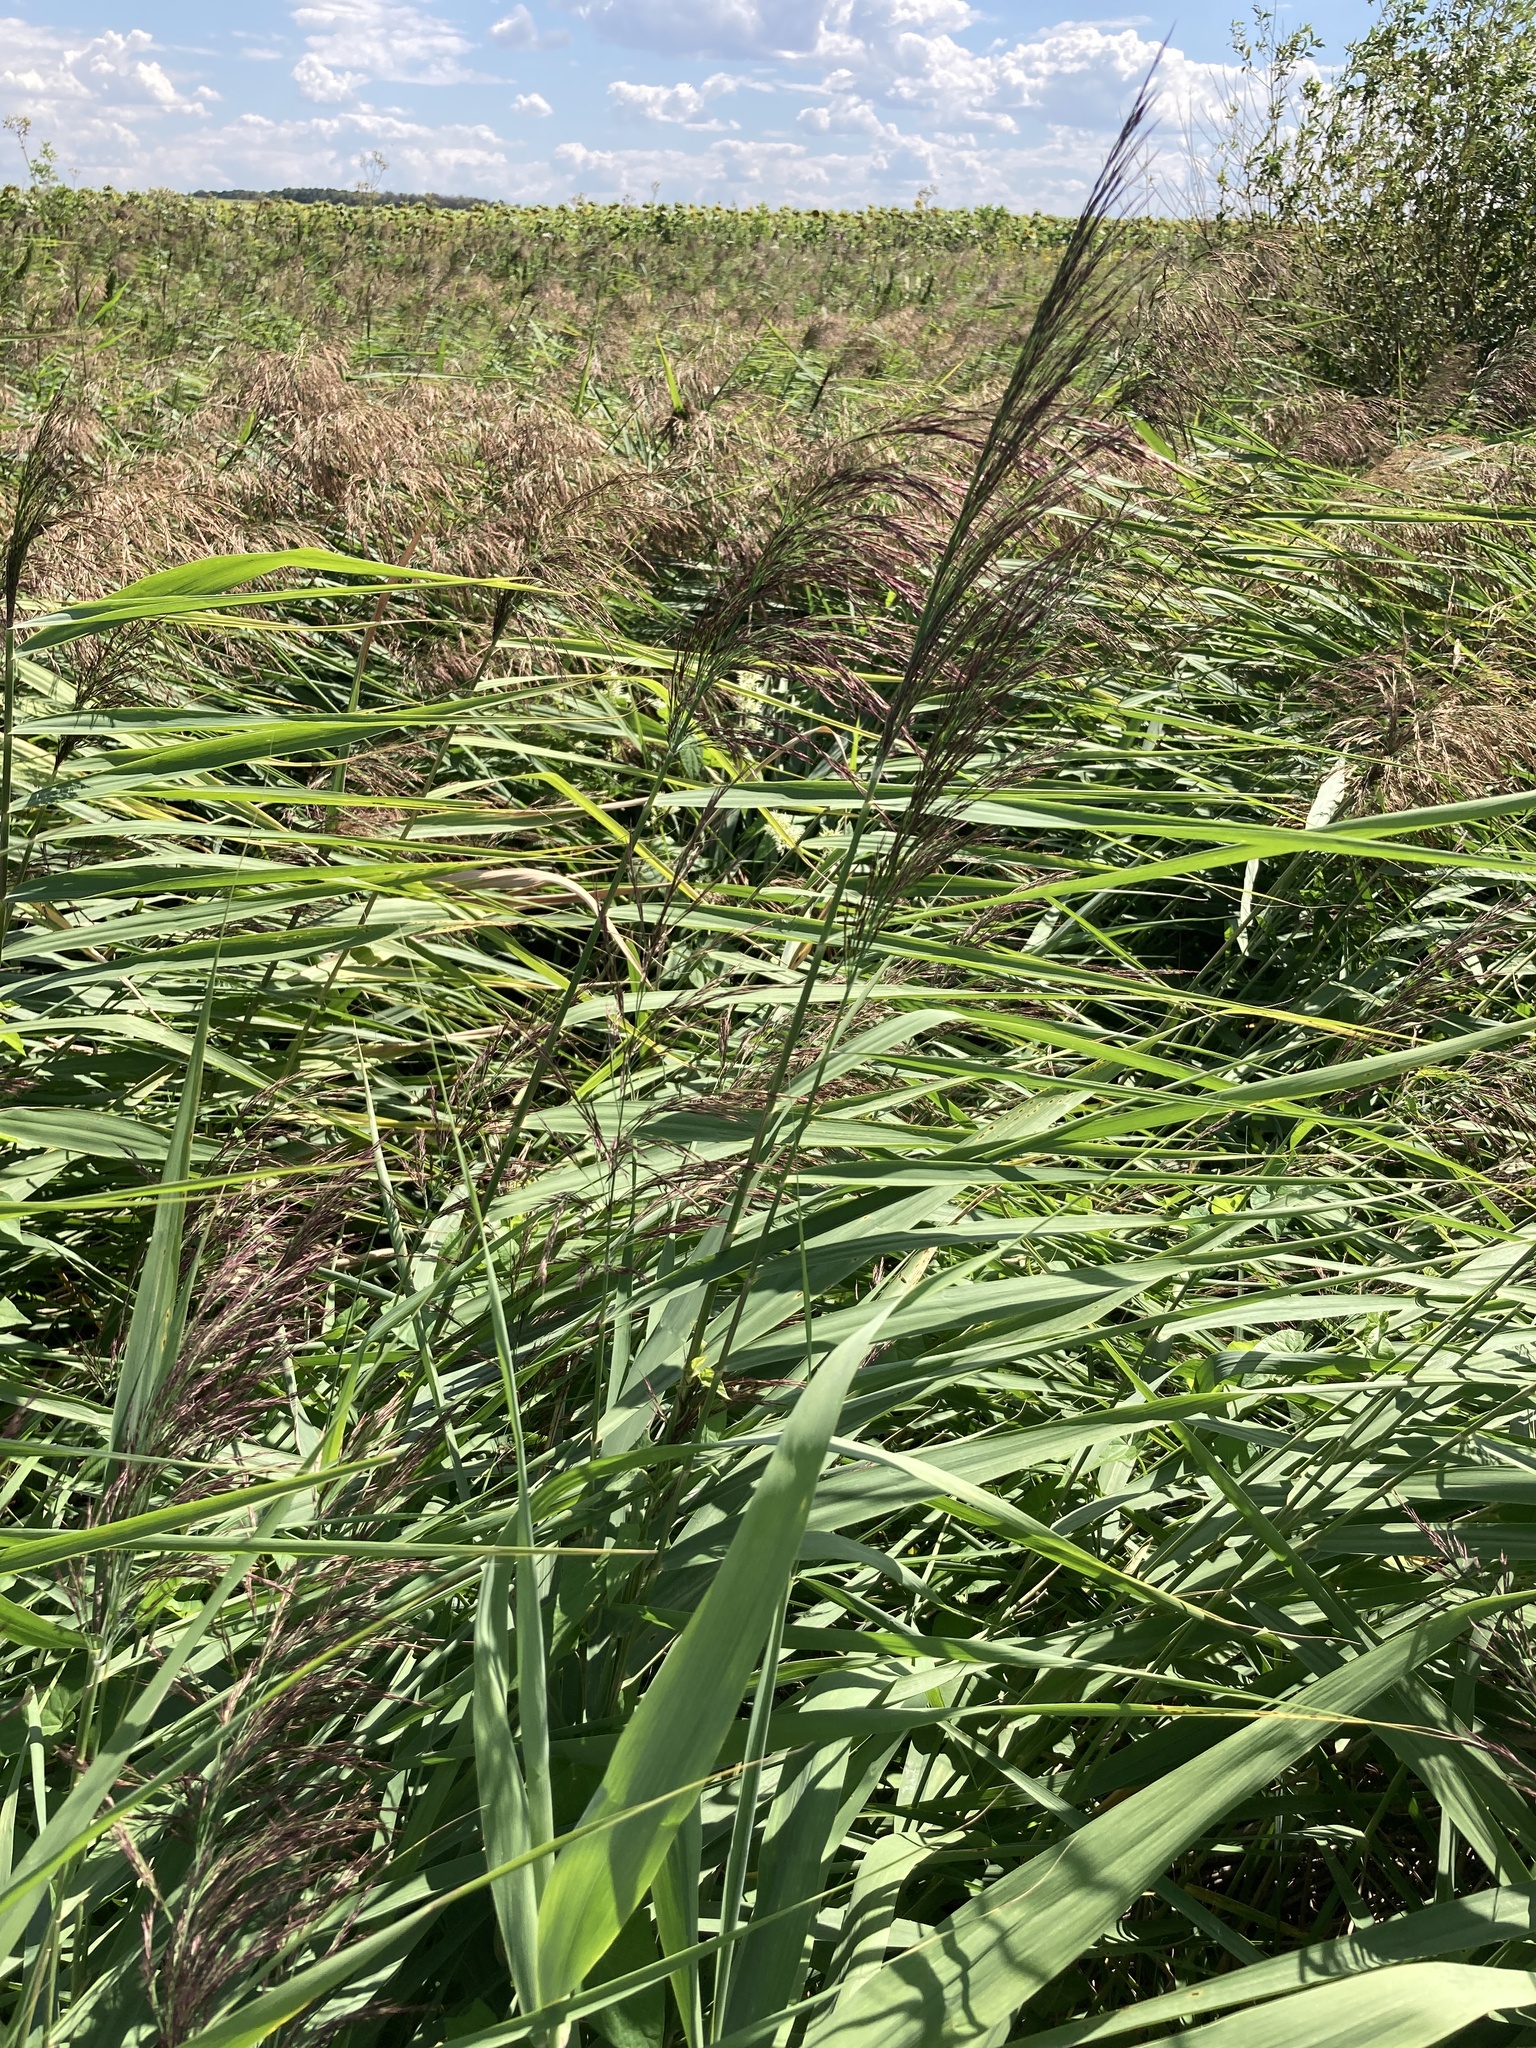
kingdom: Plantae
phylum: Tracheophyta
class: Liliopsida
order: Poales
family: Poaceae
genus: Phragmites
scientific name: Phragmites australis
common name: Common reed
